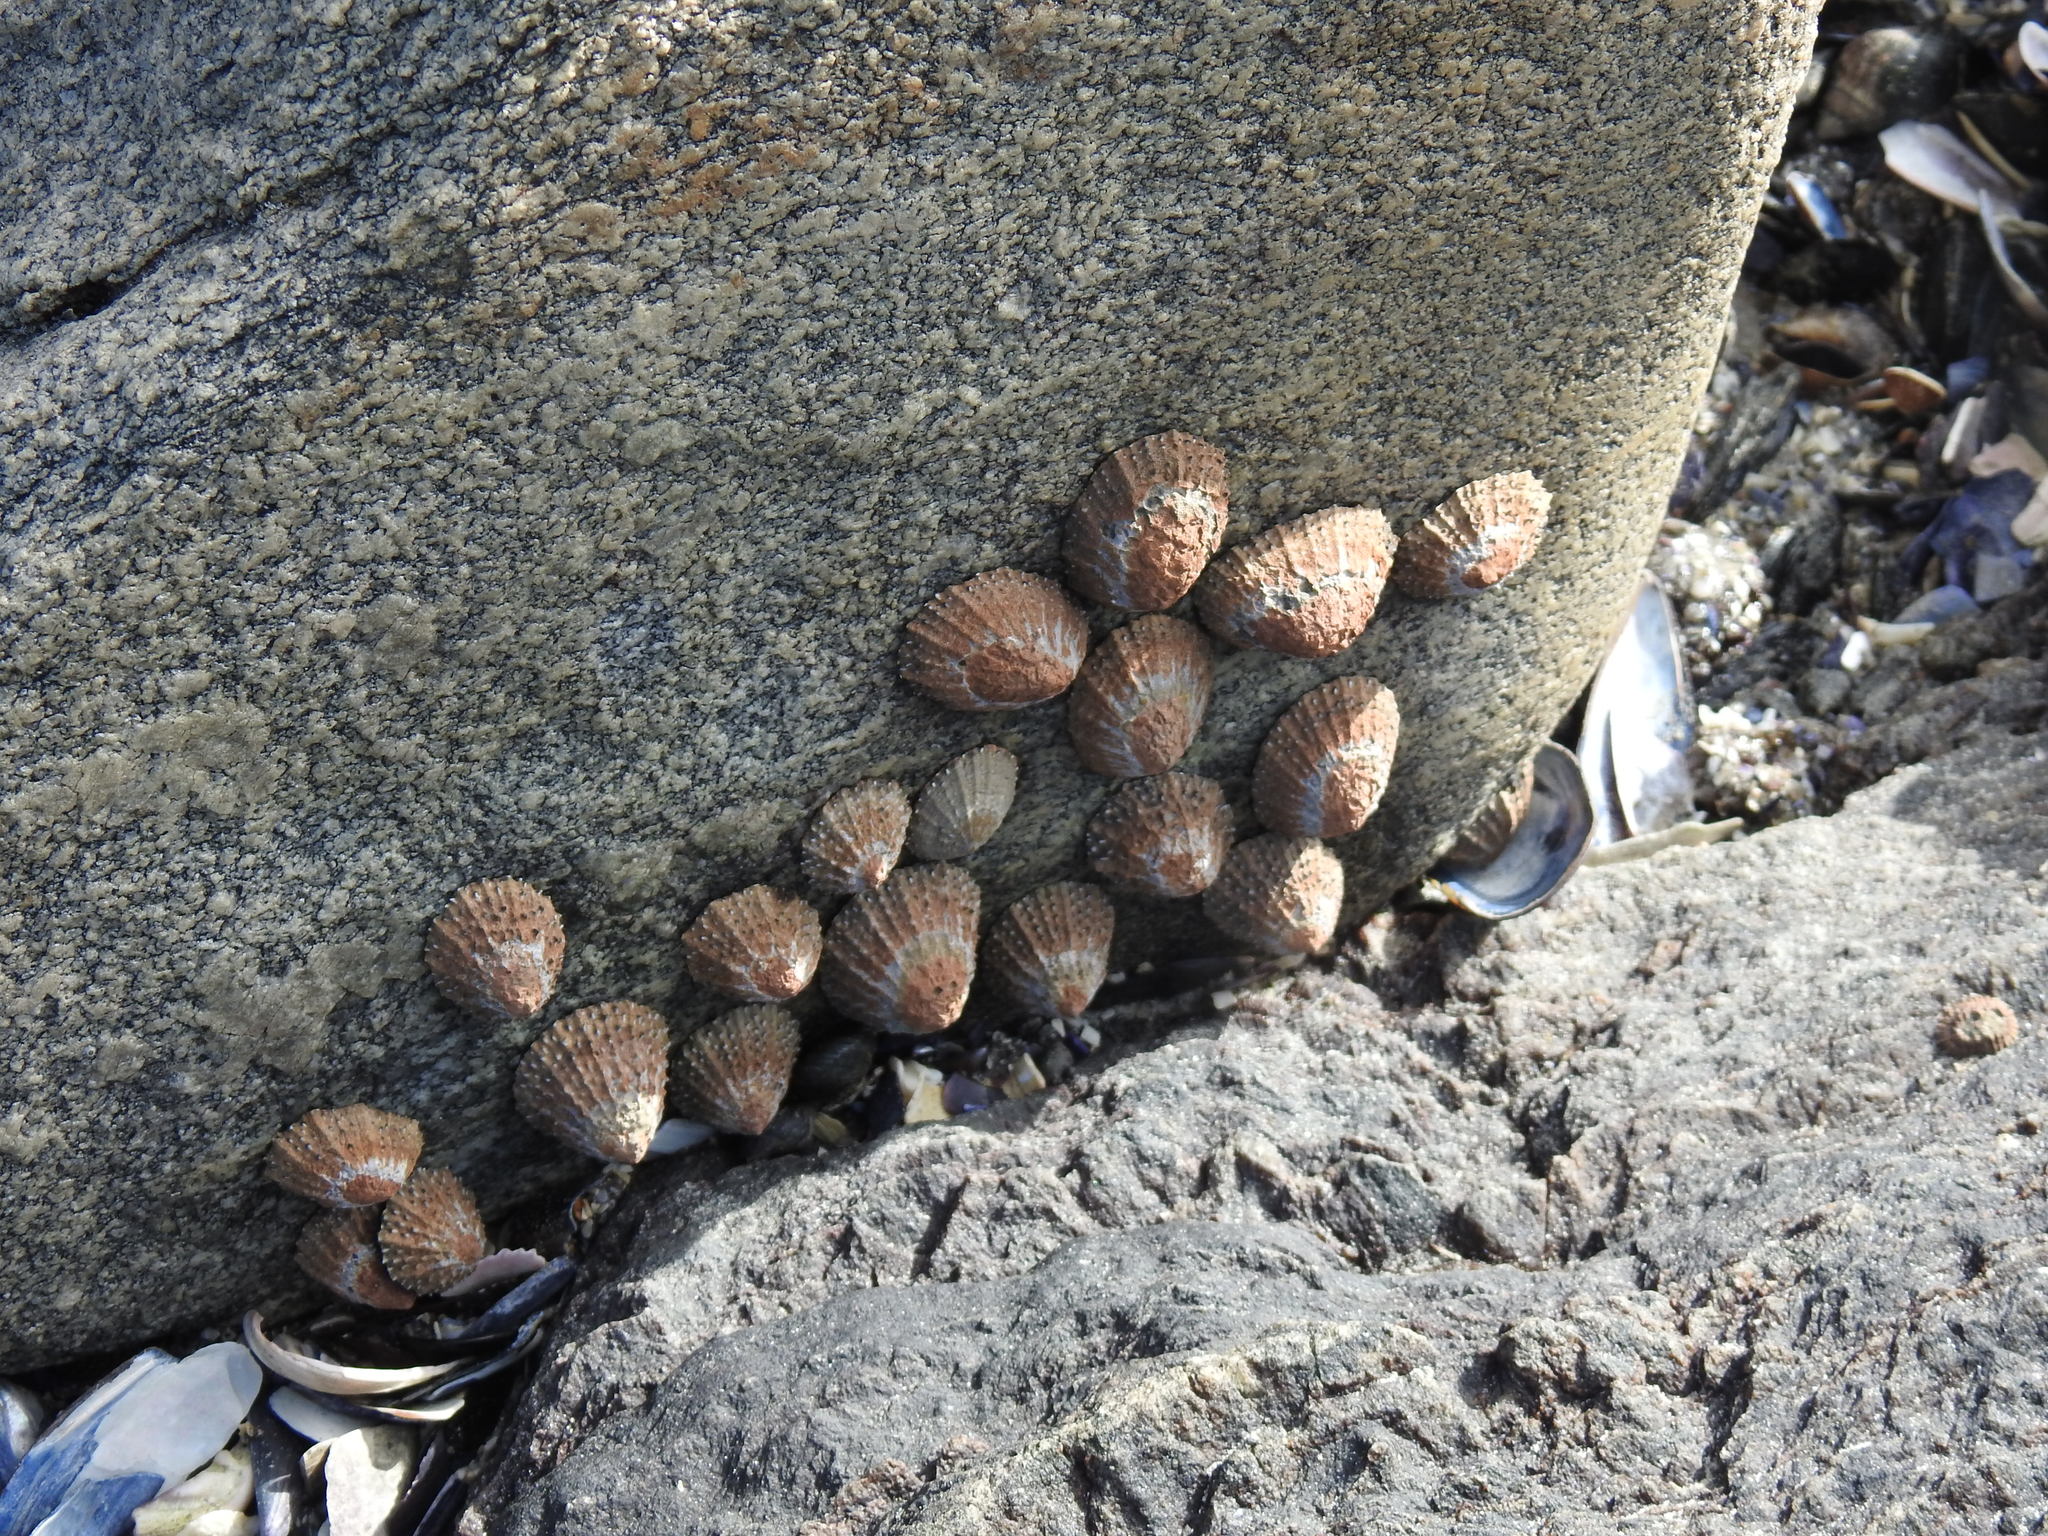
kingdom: Animalia
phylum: Mollusca
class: Gastropoda
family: Patellidae
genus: Scutellastra
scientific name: Scutellastra granularis
